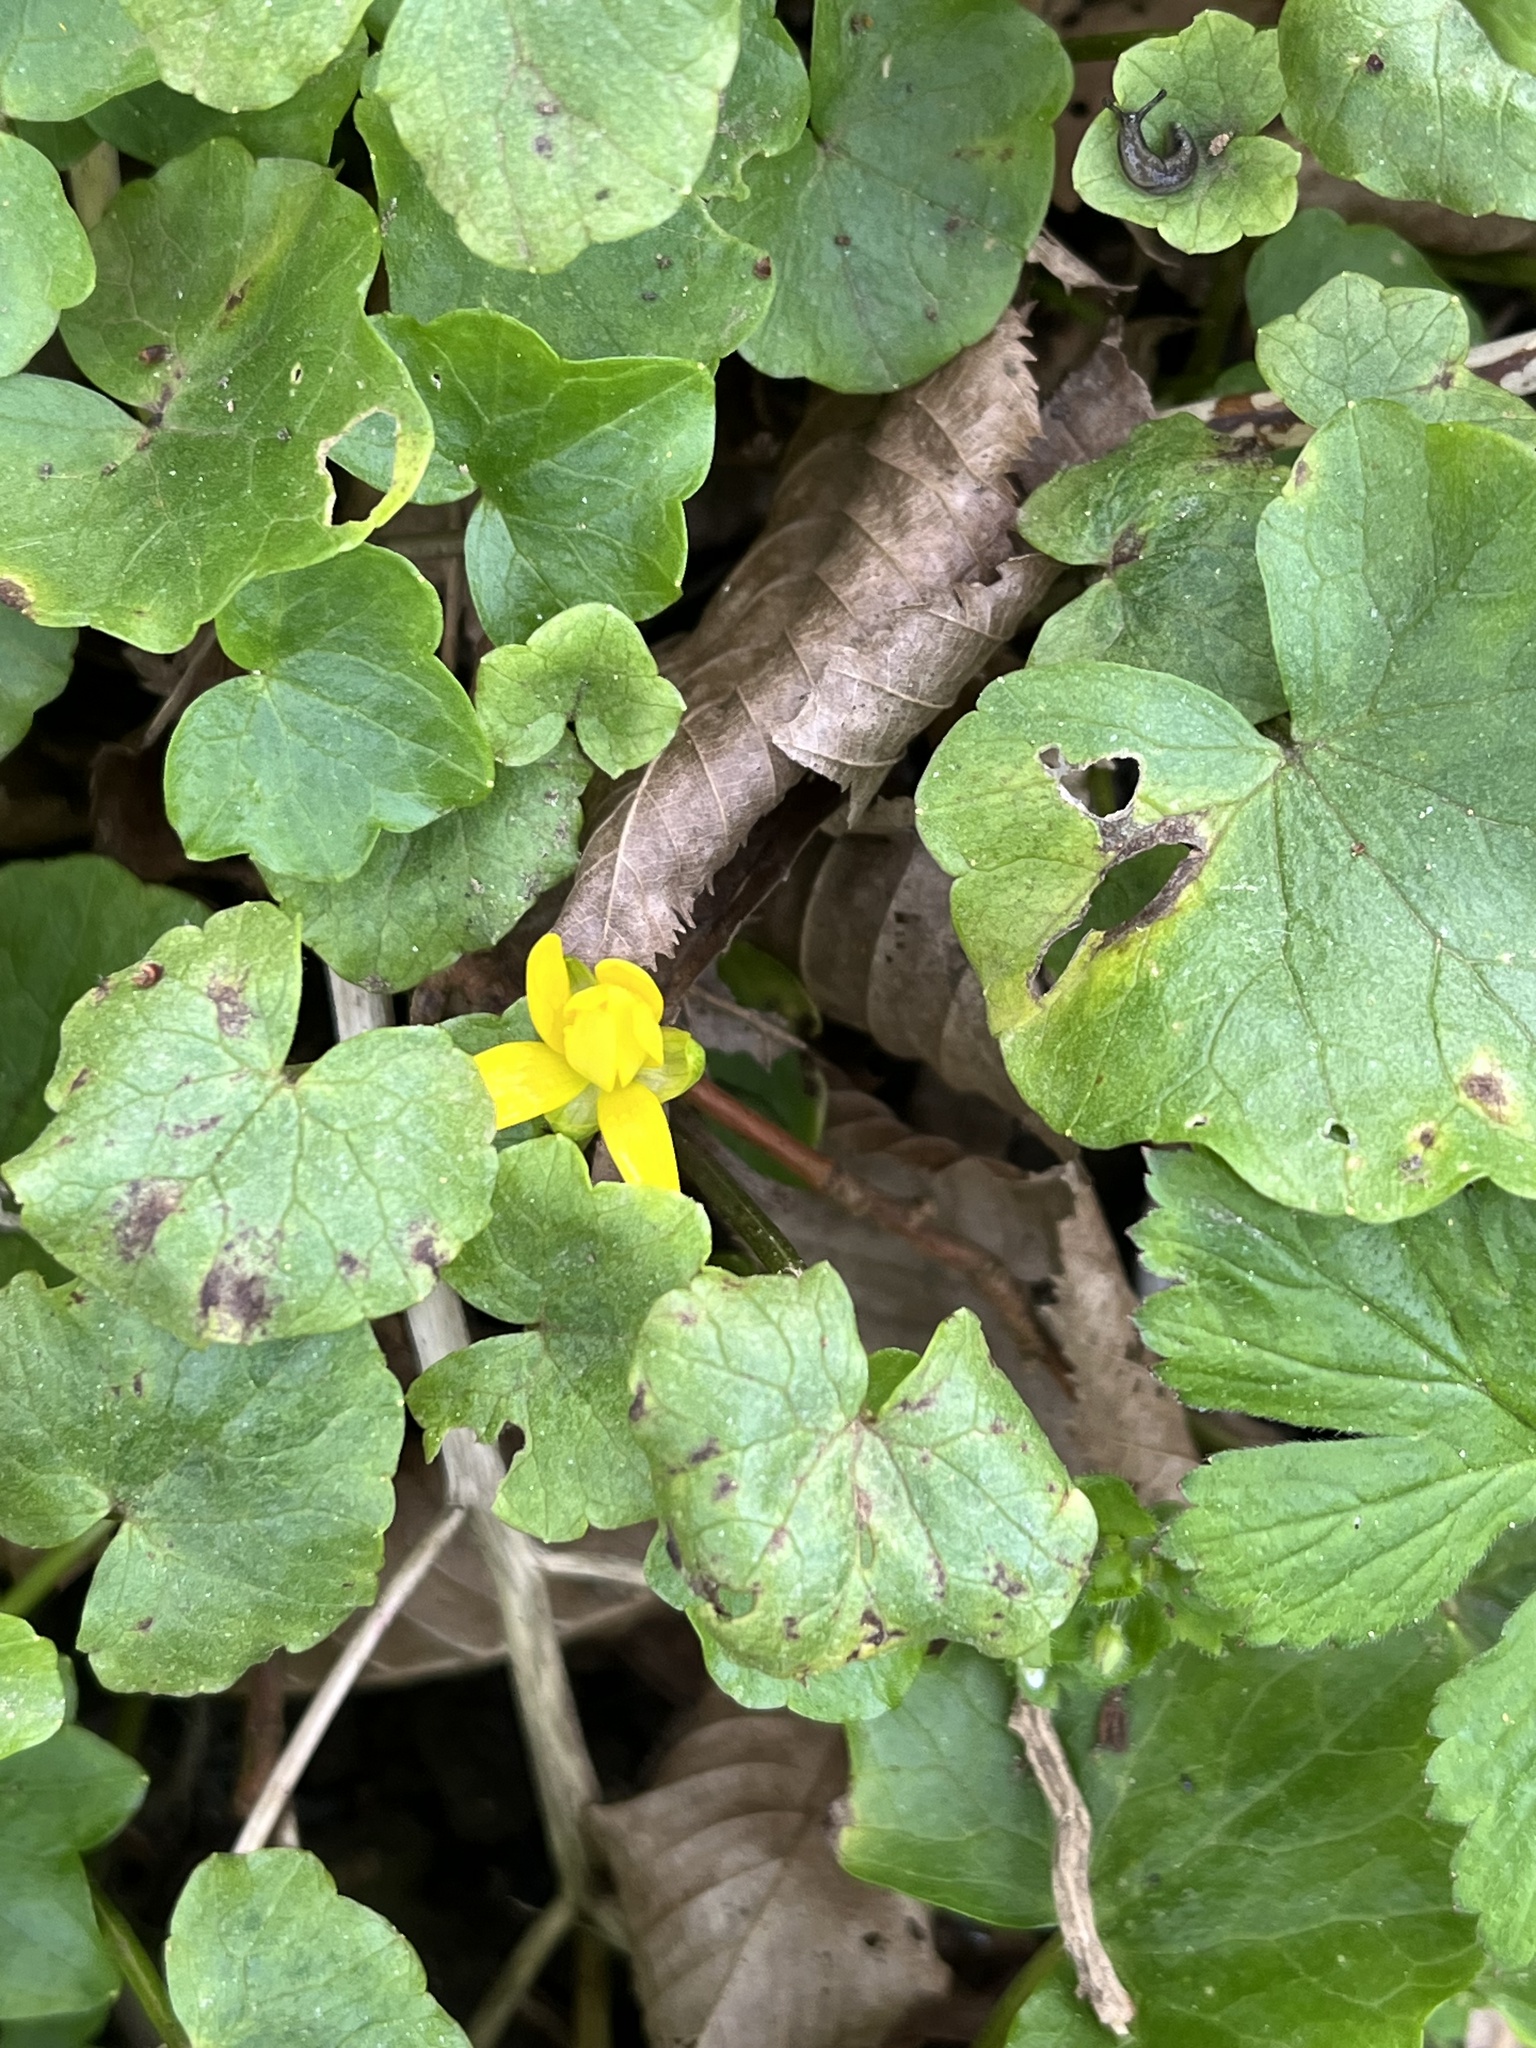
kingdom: Plantae
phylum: Tracheophyta
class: Magnoliopsida
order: Ranunculales
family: Ranunculaceae
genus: Ficaria
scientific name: Ficaria verna
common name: Lesser celandine
